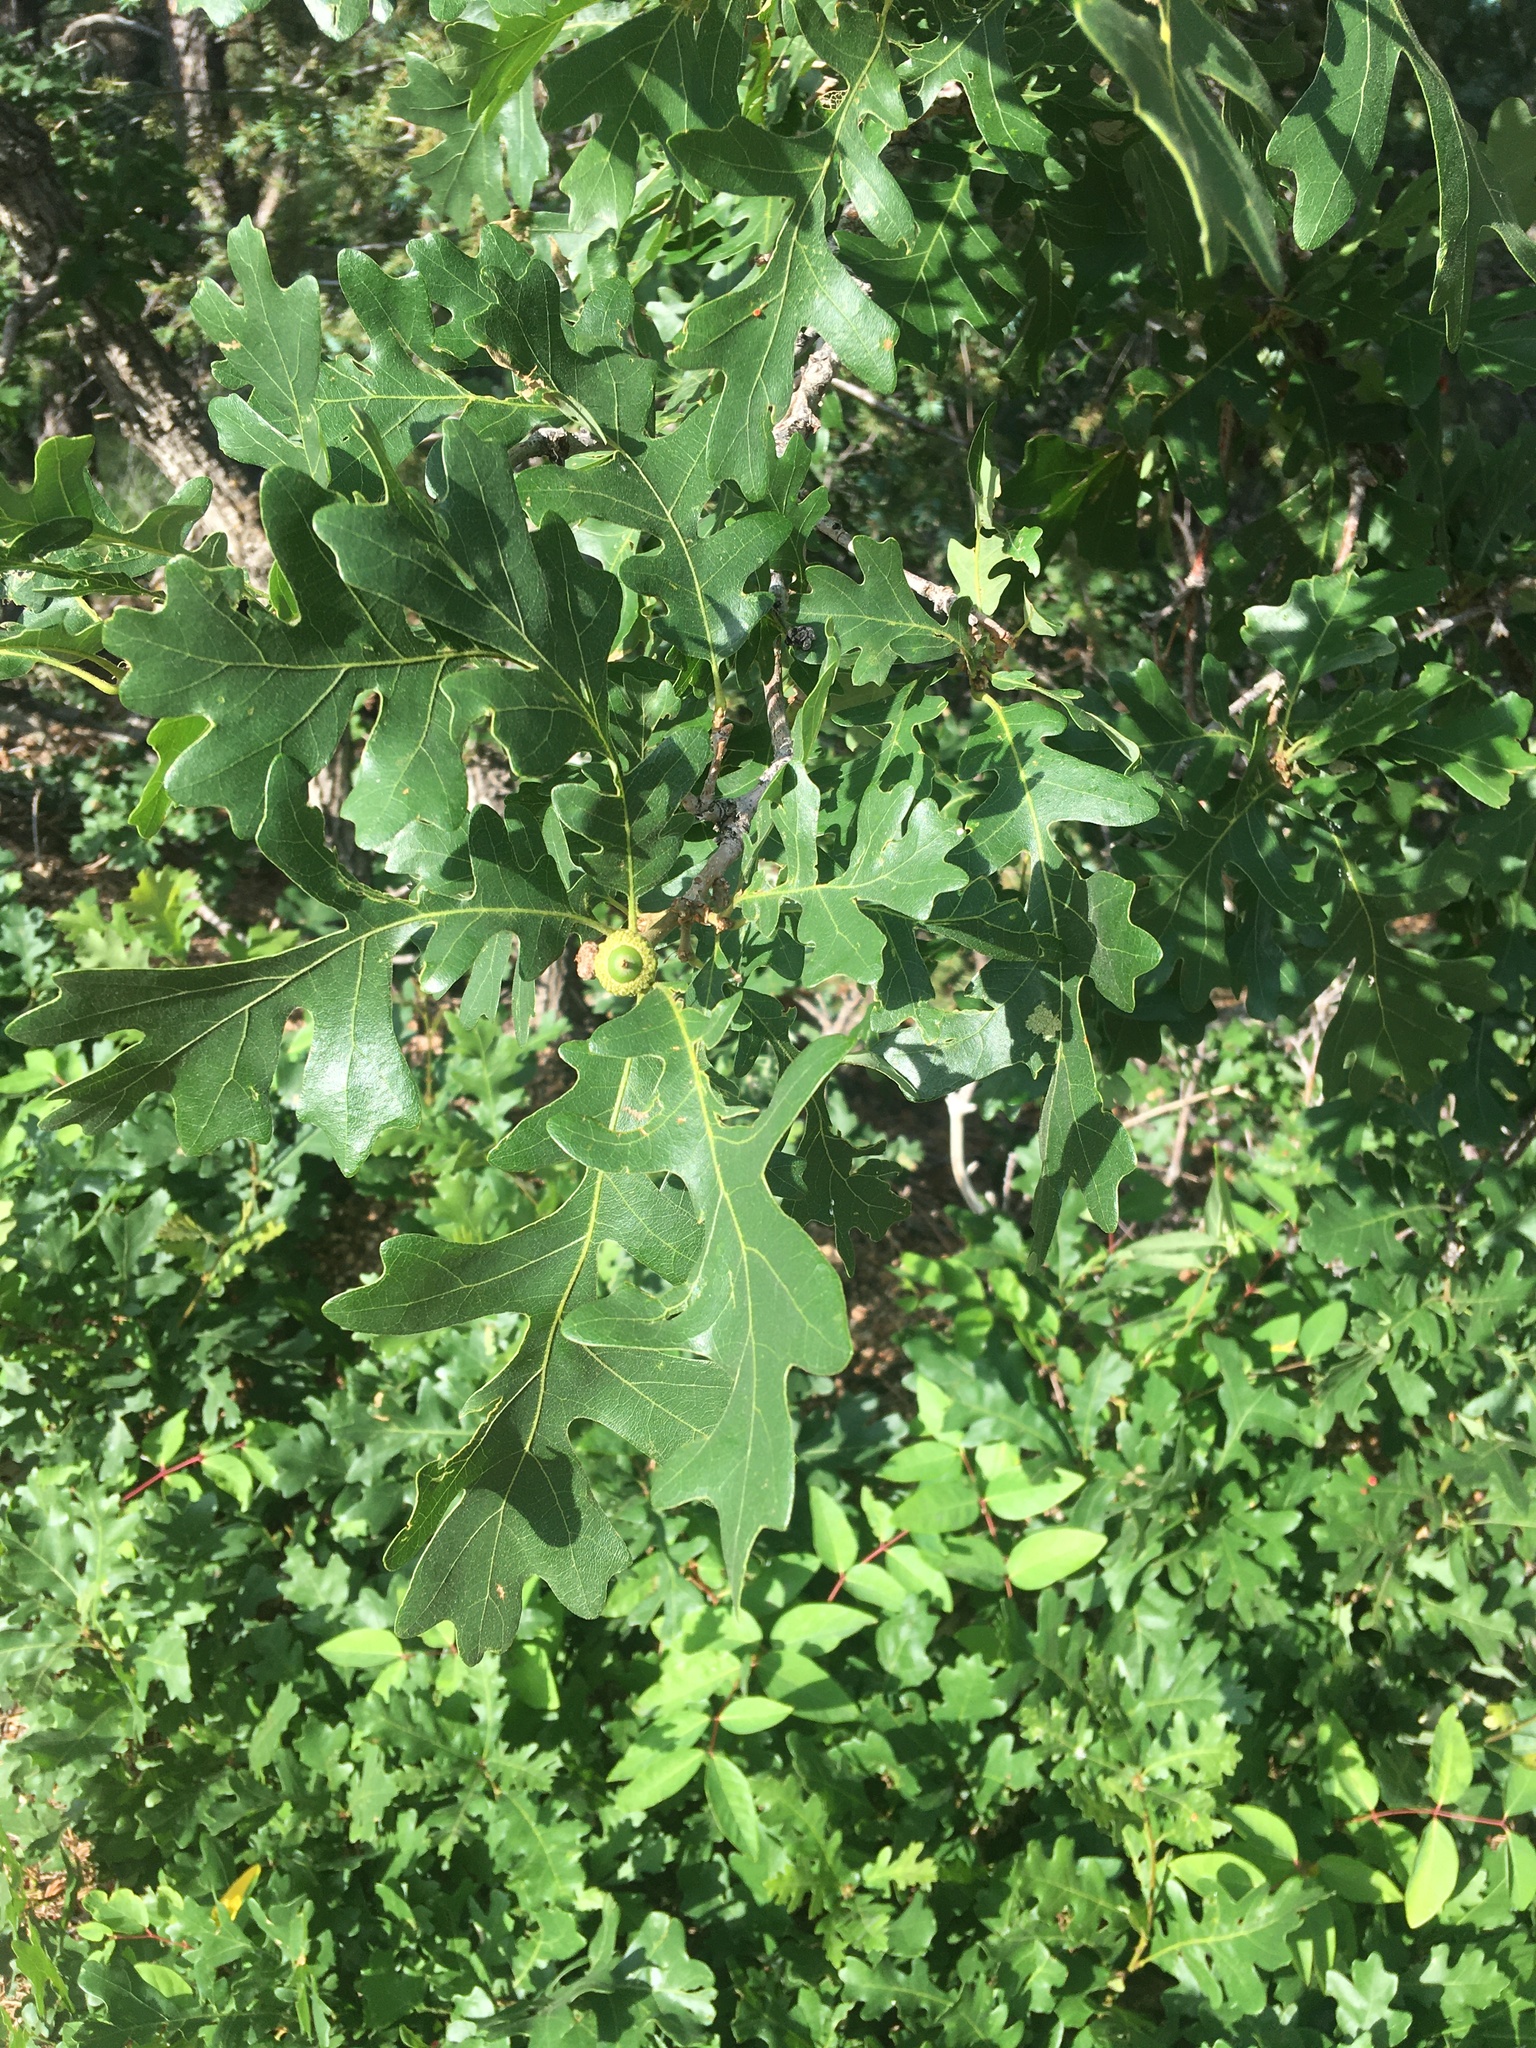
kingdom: Plantae
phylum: Tracheophyta
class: Magnoliopsida
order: Fagales
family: Fagaceae
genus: Quercus
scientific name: Quercus gambelii
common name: Gambel oak
